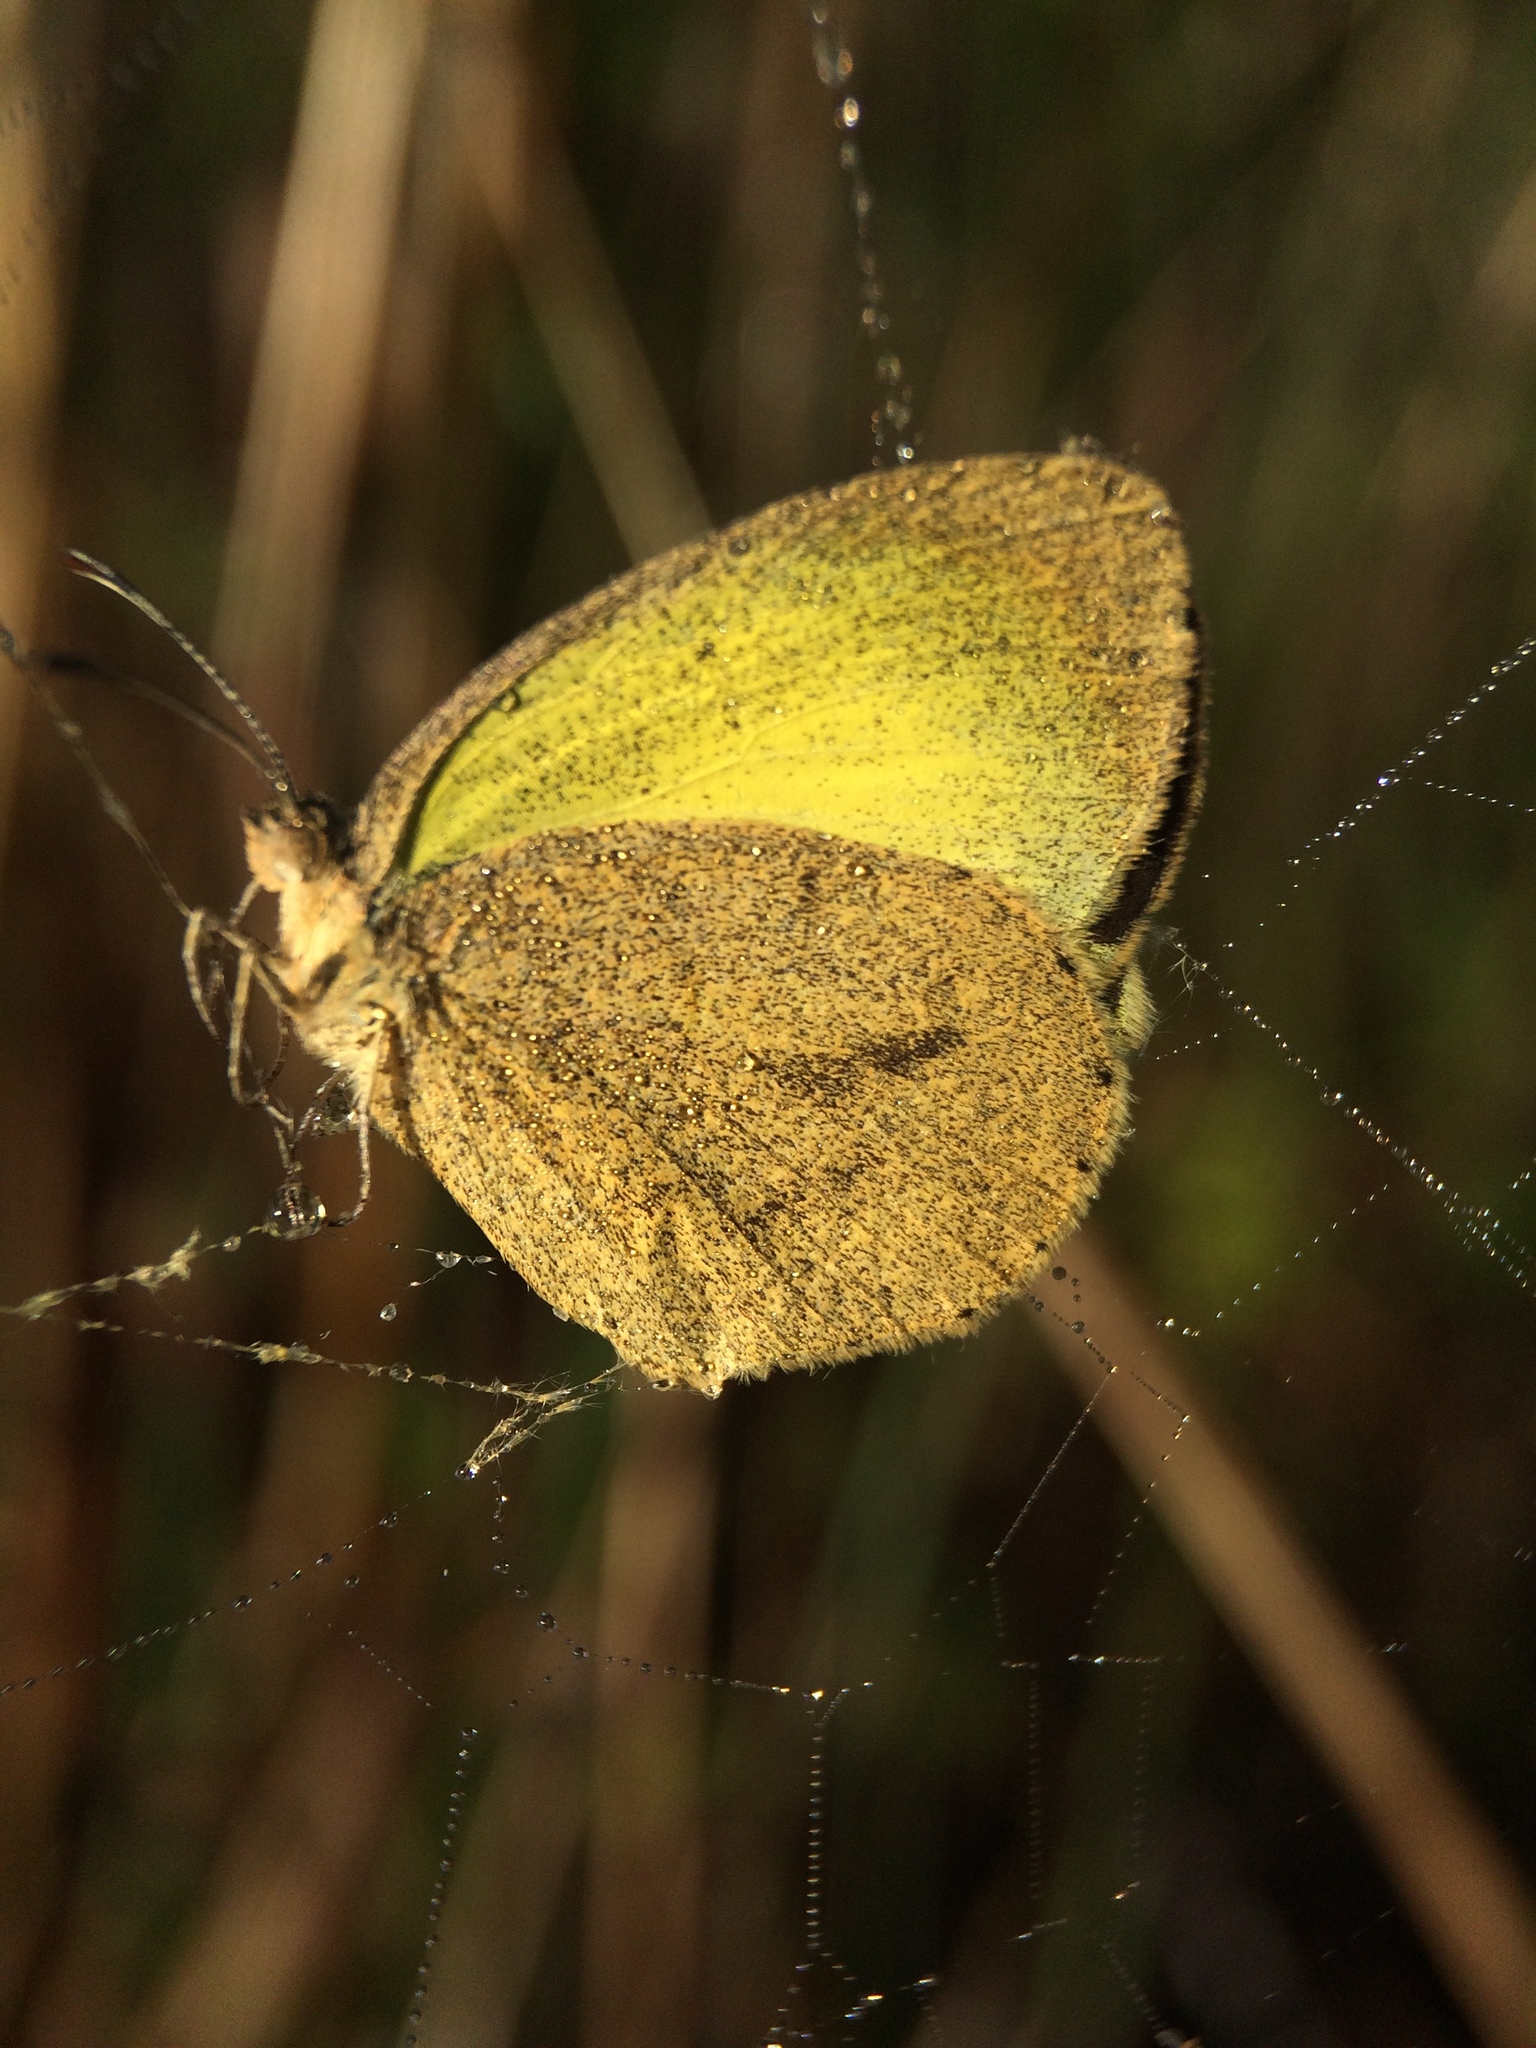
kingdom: Animalia
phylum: Arthropoda
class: Insecta
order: Lepidoptera
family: Pieridae
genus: Eurema
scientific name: Eurema daira
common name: Barred sulphur
